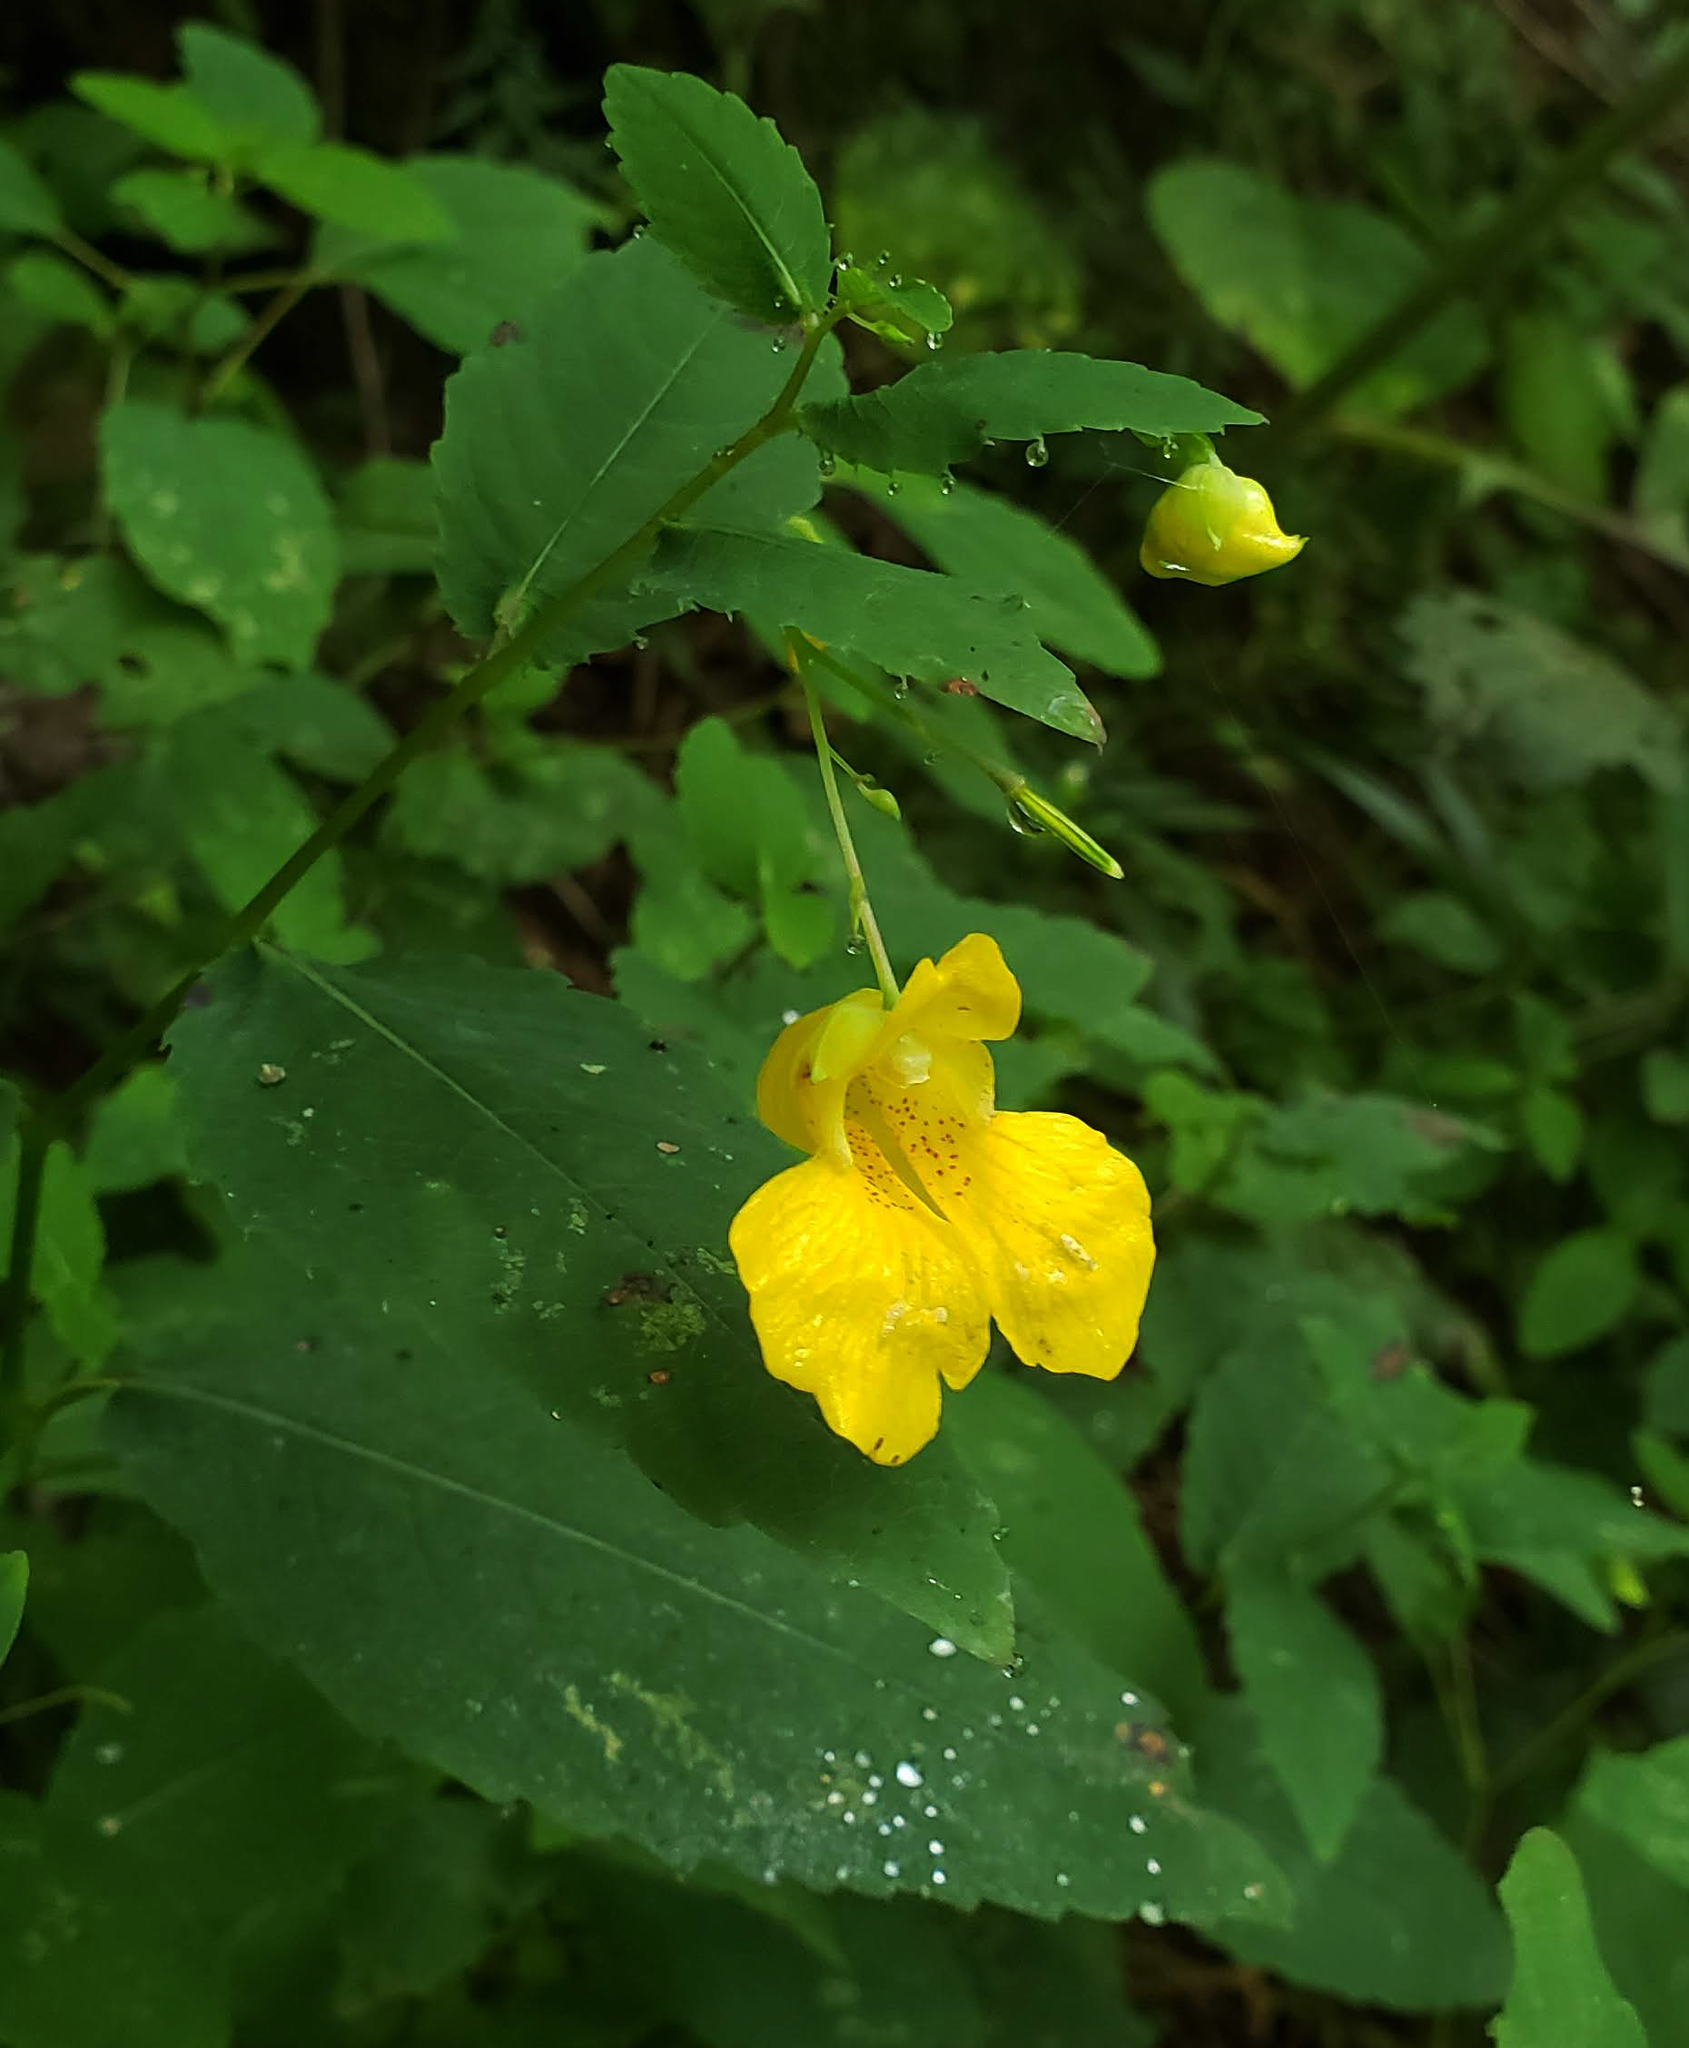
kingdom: Plantae
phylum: Tracheophyta
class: Magnoliopsida
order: Ericales
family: Balsaminaceae
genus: Impatiens
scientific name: Impatiens pallida
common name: Pale snapweed
